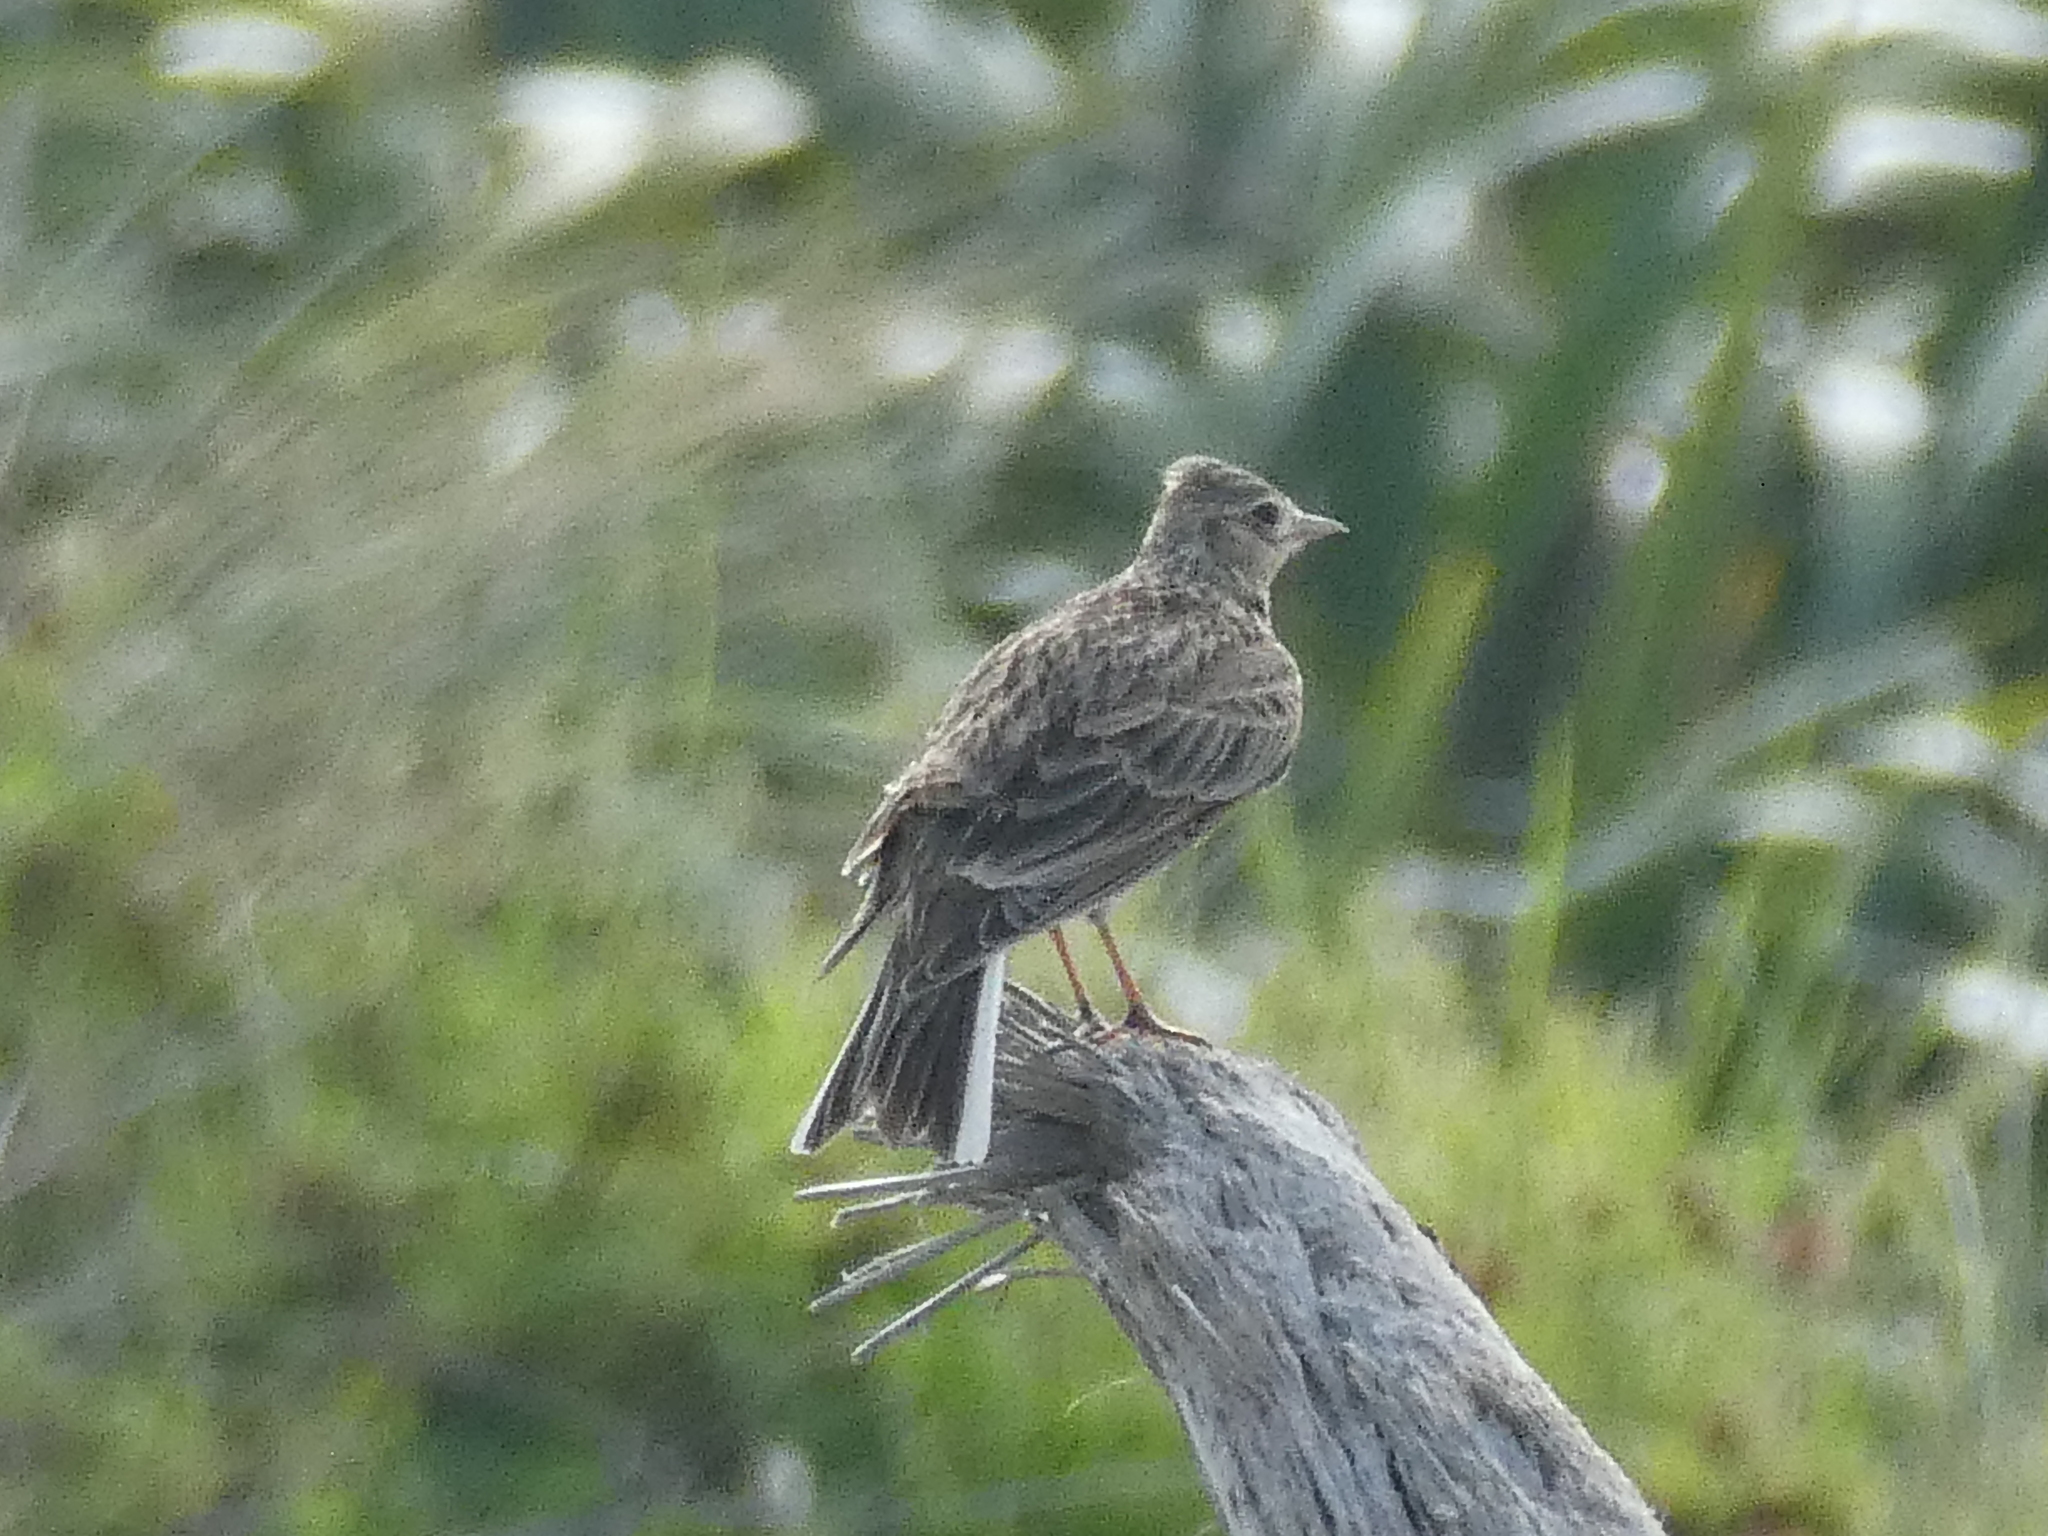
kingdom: Animalia
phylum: Chordata
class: Aves
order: Passeriformes
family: Alaudidae
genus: Alauda
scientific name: Alauda arvensis
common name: Eurasian skylark
